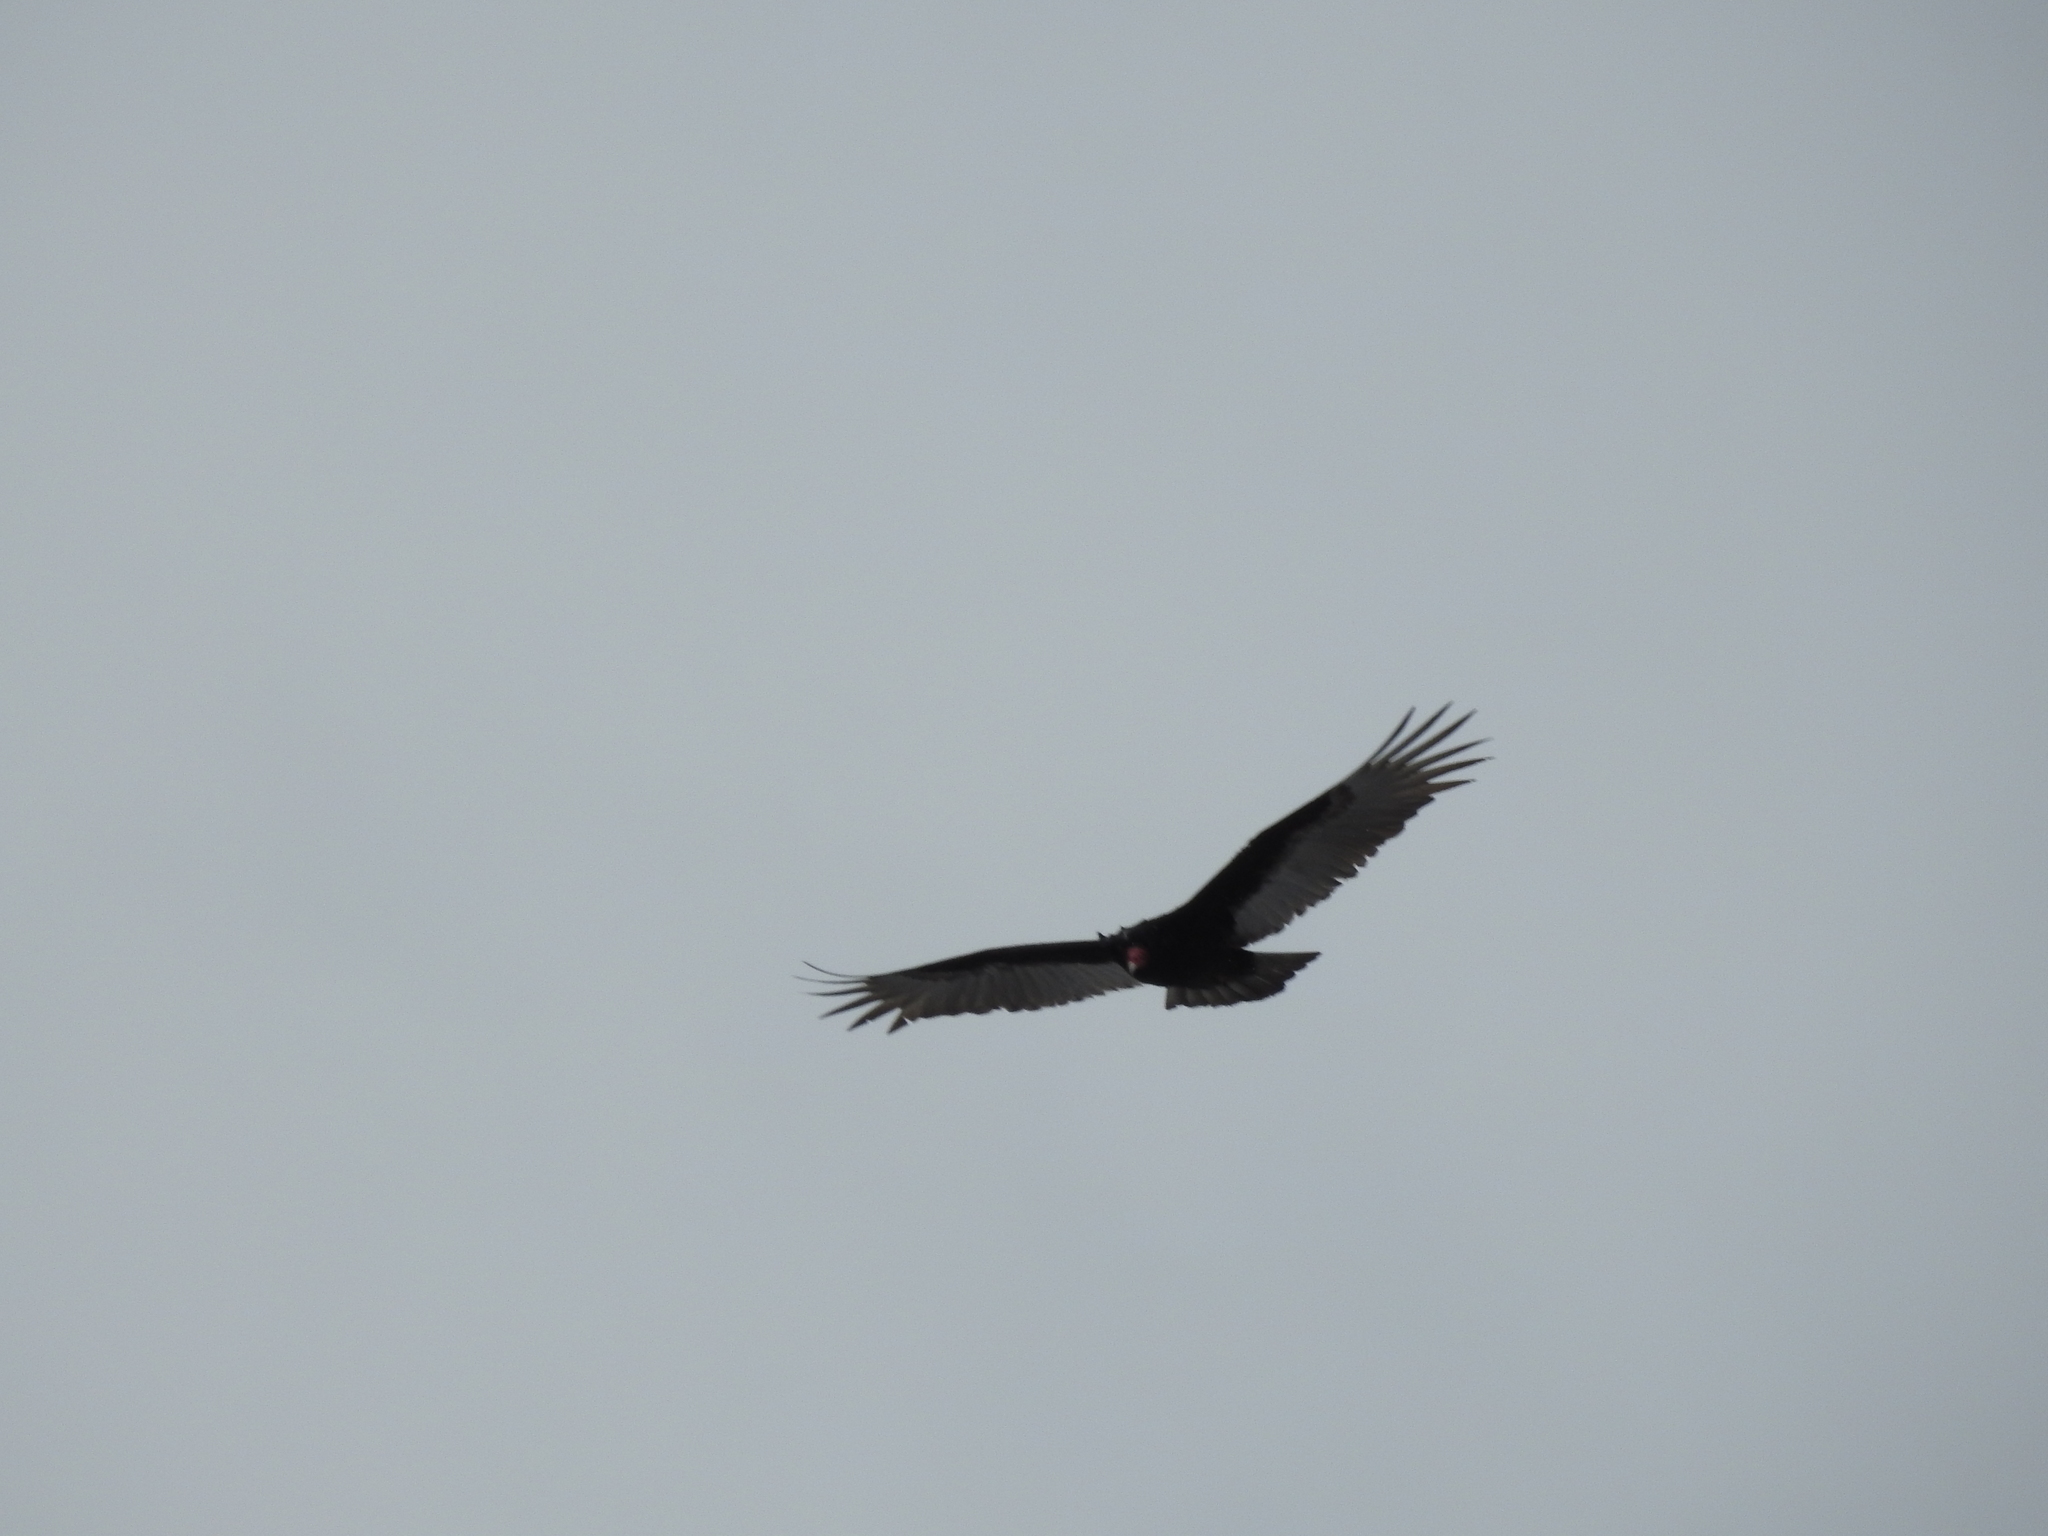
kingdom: Animalia
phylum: Chordata
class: Aves
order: Accipitriformes
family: Cathartidae
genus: Cathartes
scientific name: Cathartes aura
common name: Turkey vulture
